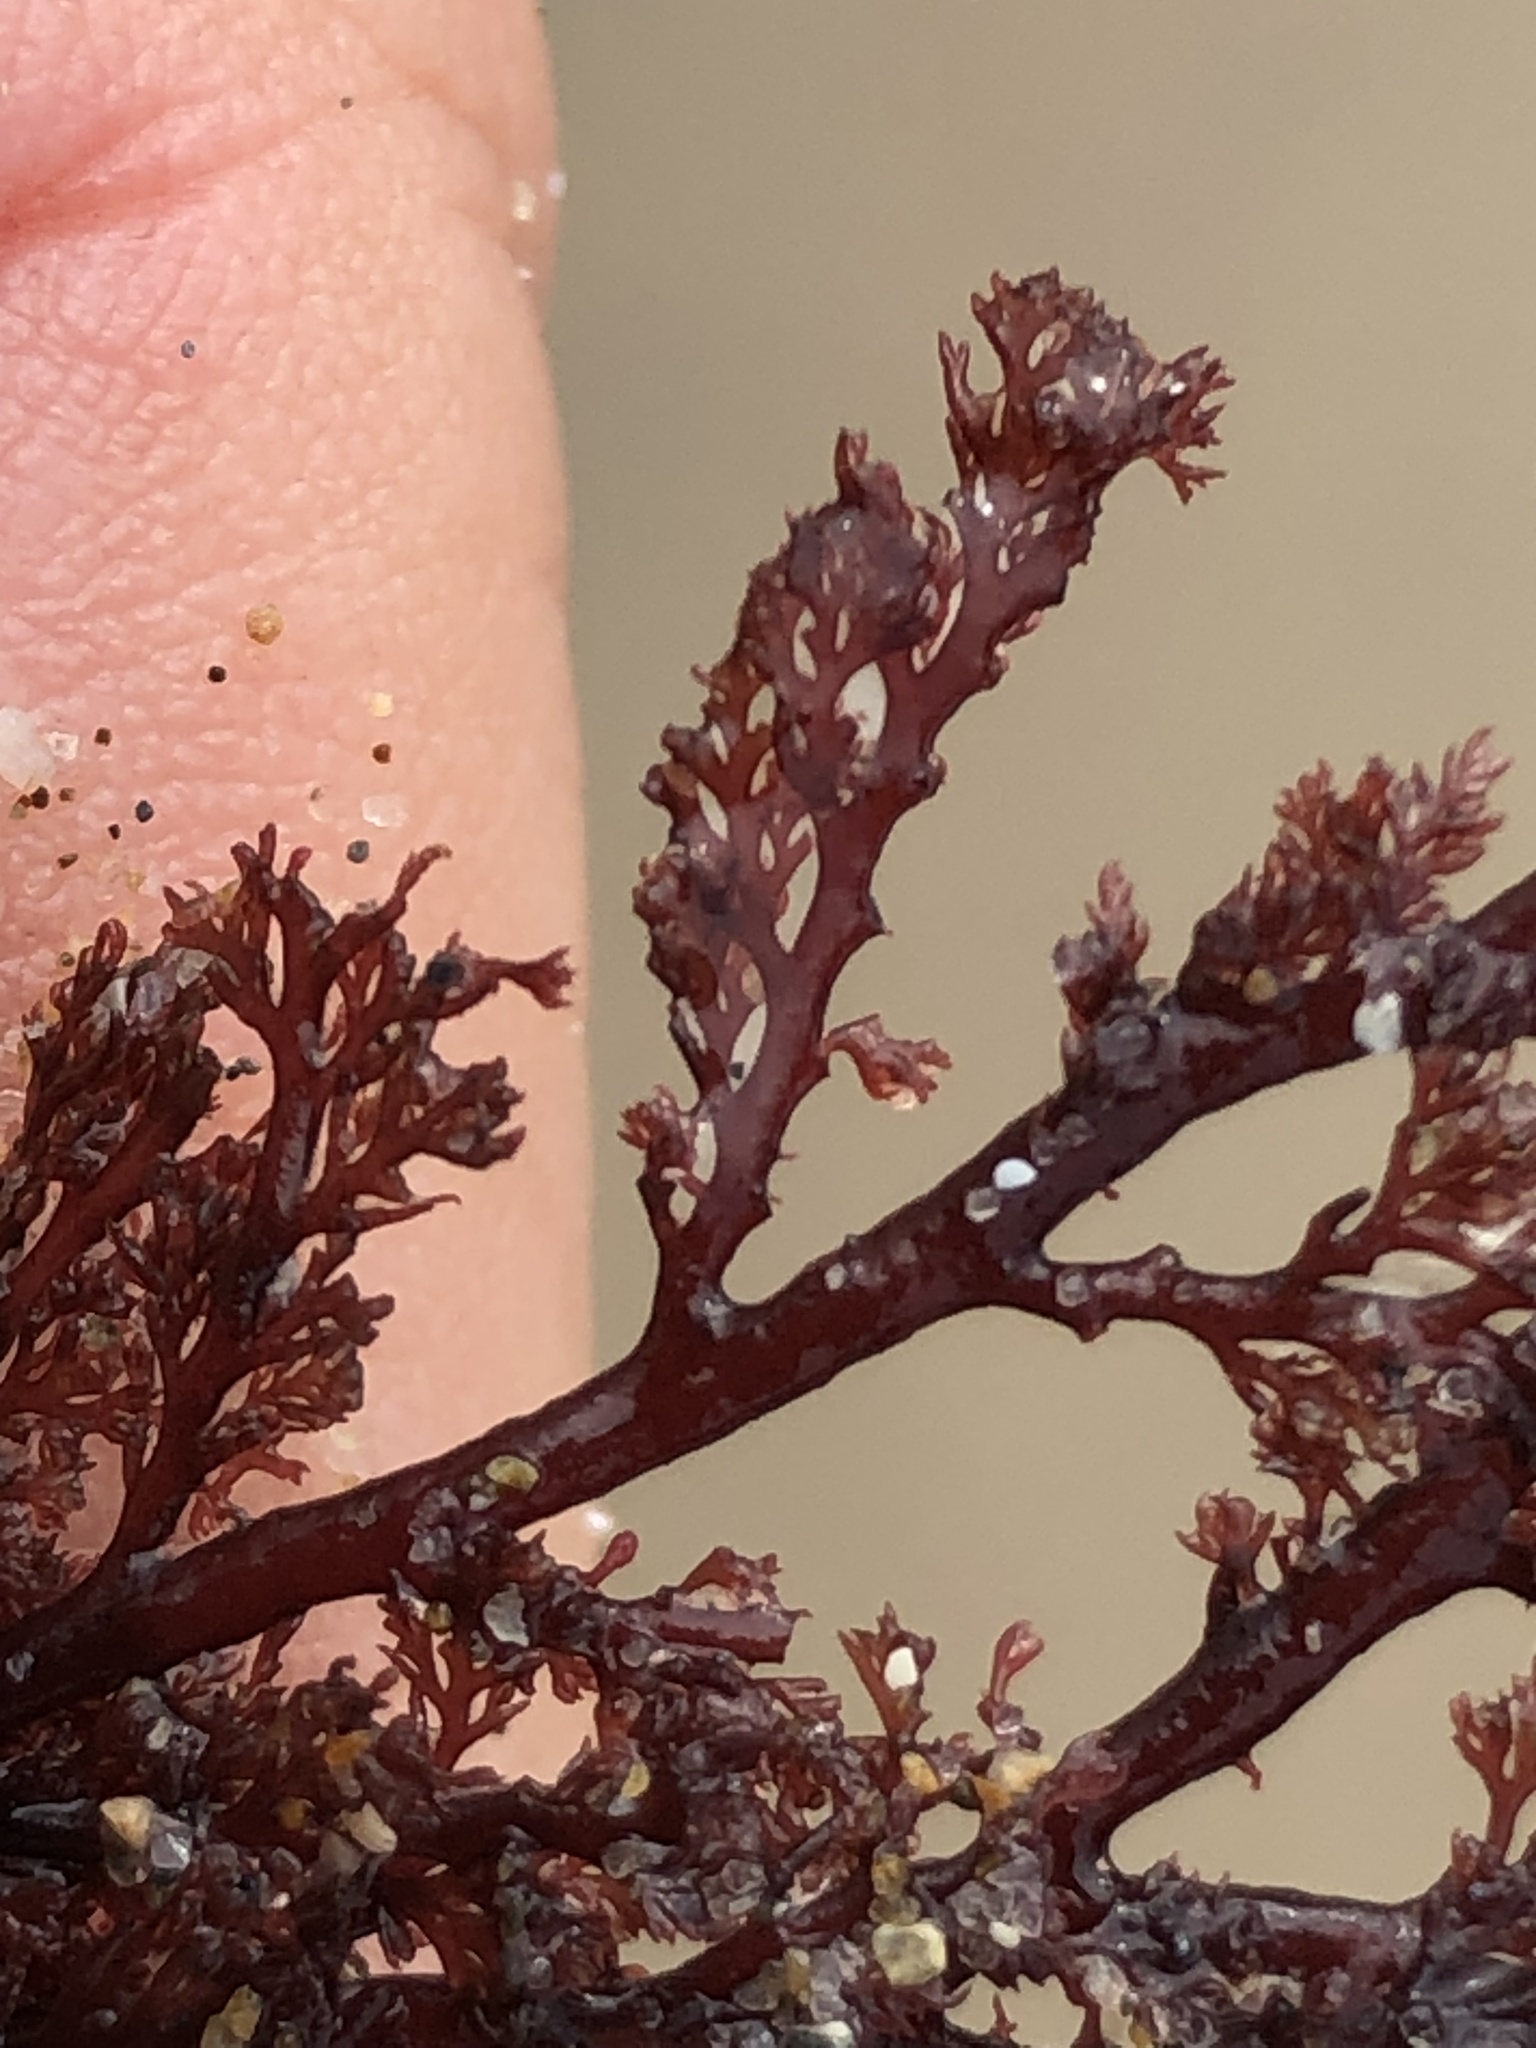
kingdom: Plantae
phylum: Rhodophyta
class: Florideophyceae
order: Ceramiales
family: Ceramiaceae
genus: Microcladia
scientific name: Microcladia coulteri
